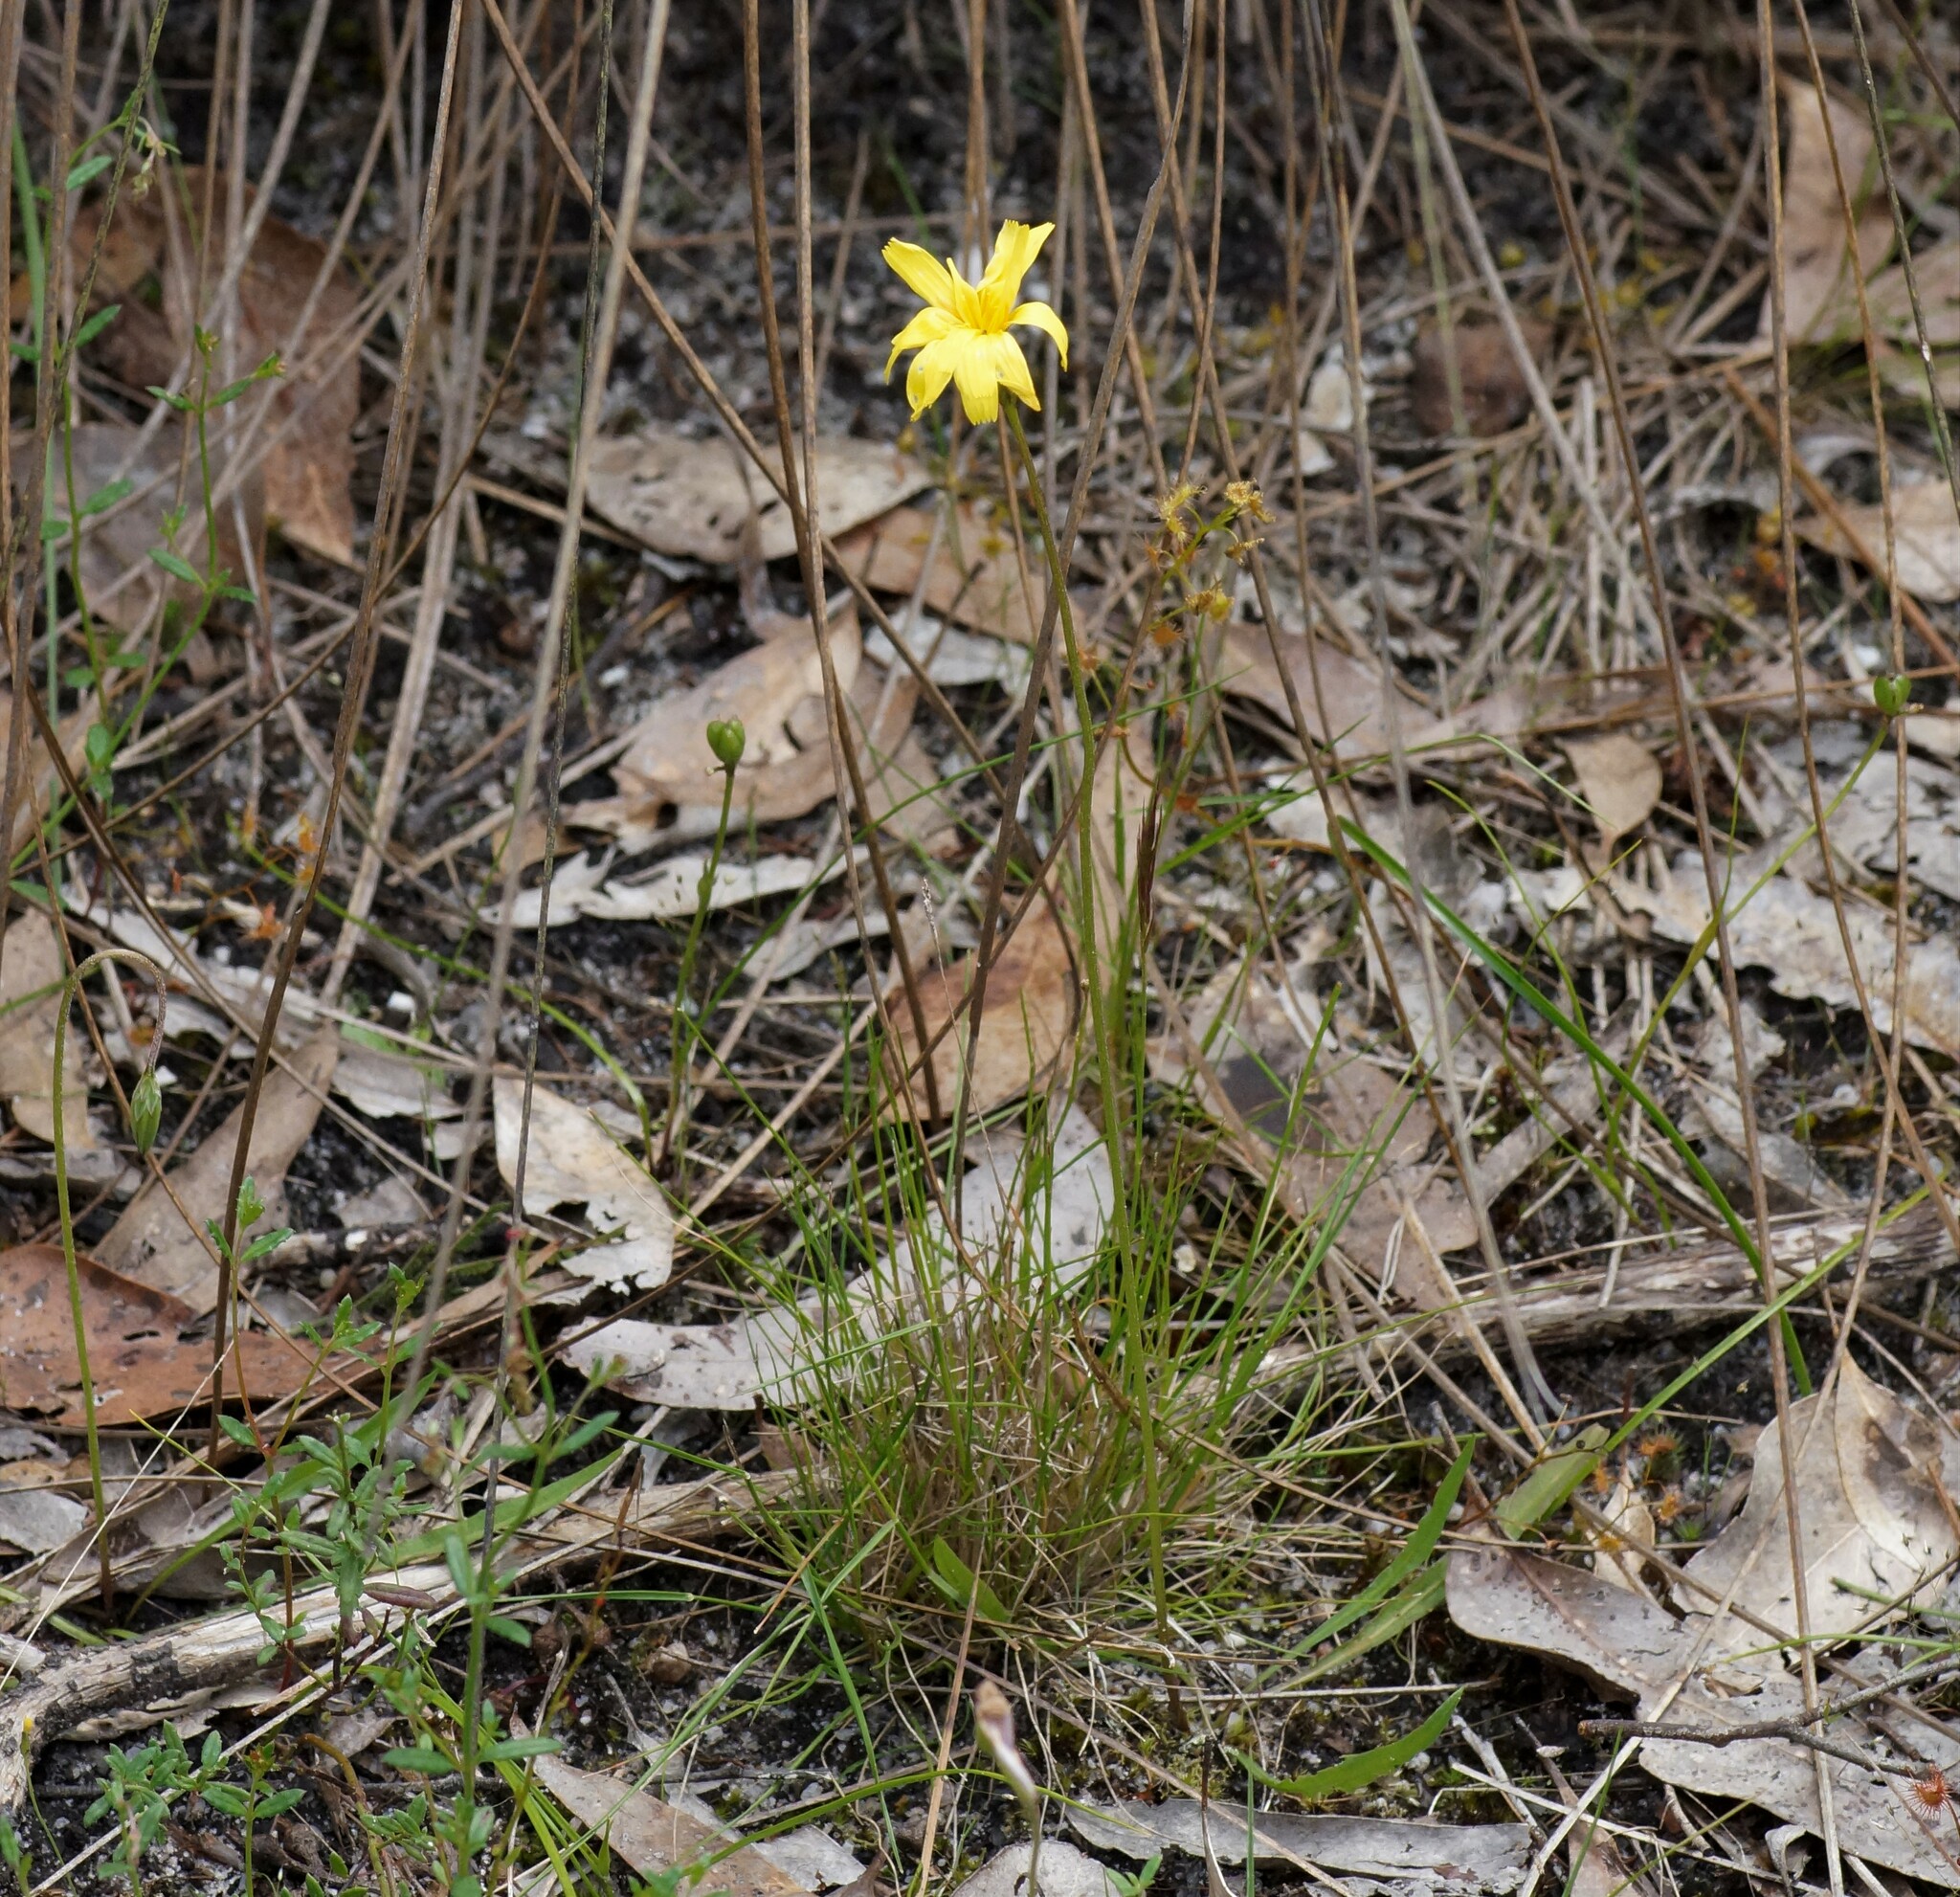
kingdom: Plantae
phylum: Tracheophyta
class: Magnoliopsida
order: Asterales
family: Asteraceae
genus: Microseris
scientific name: Microseris lanceolata
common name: Yam daisy
